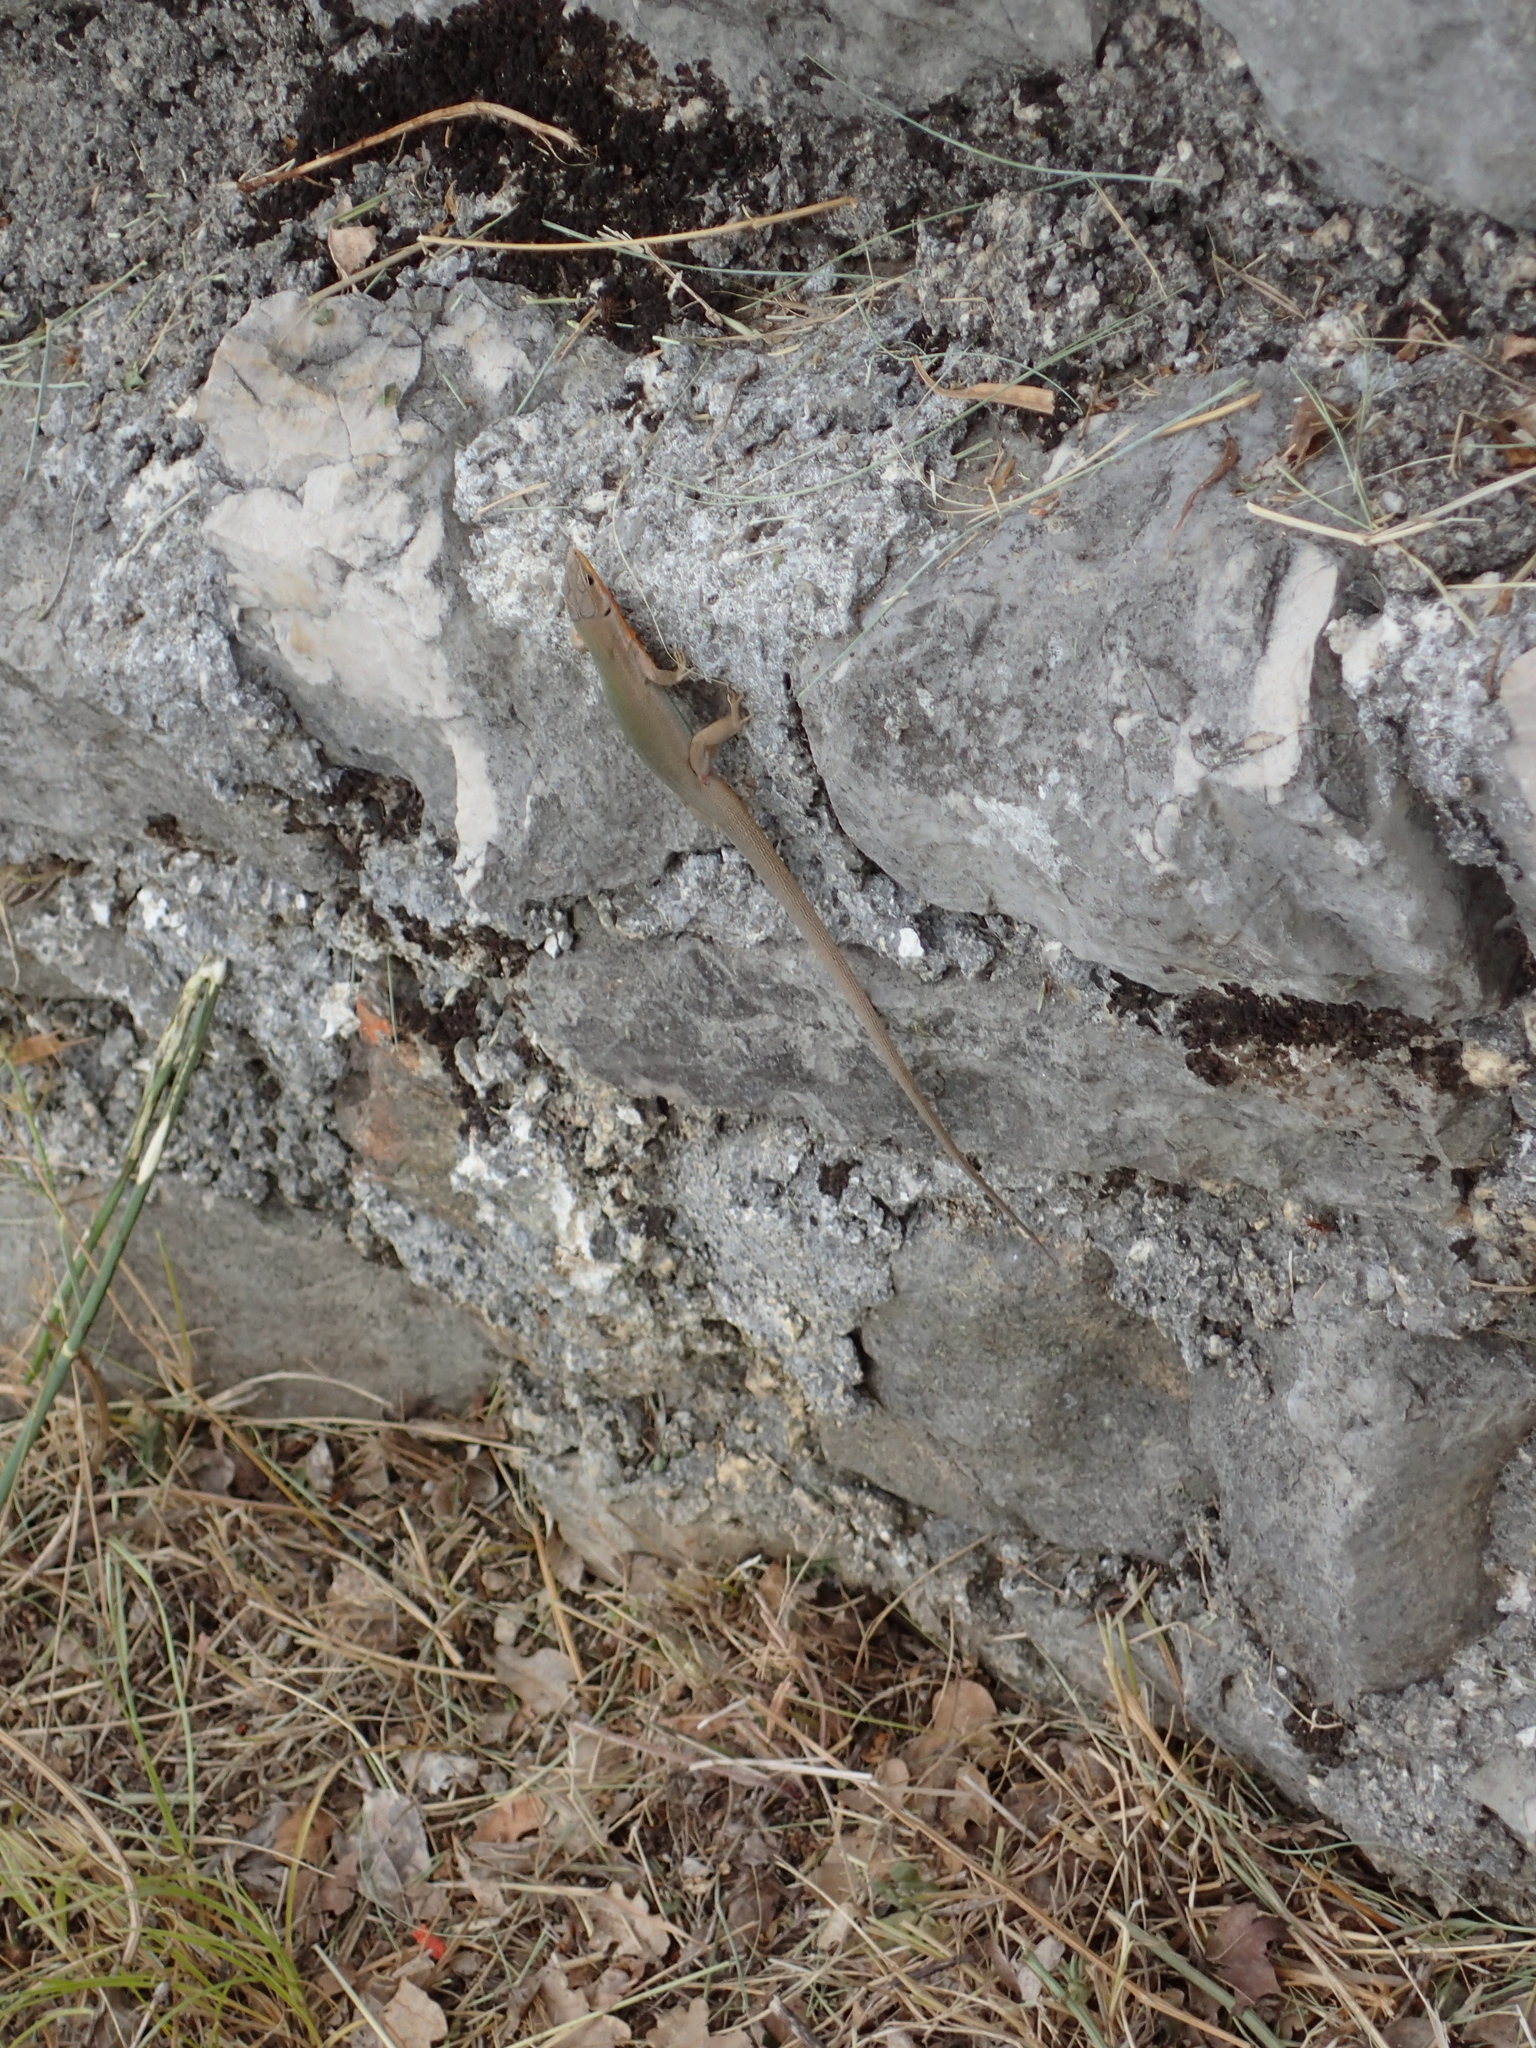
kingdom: Animalia
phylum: Chordata
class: Squamata
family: Lacertidae
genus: Podarcis
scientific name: Podarcis melisellensis
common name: Dalmatian wall lizard
